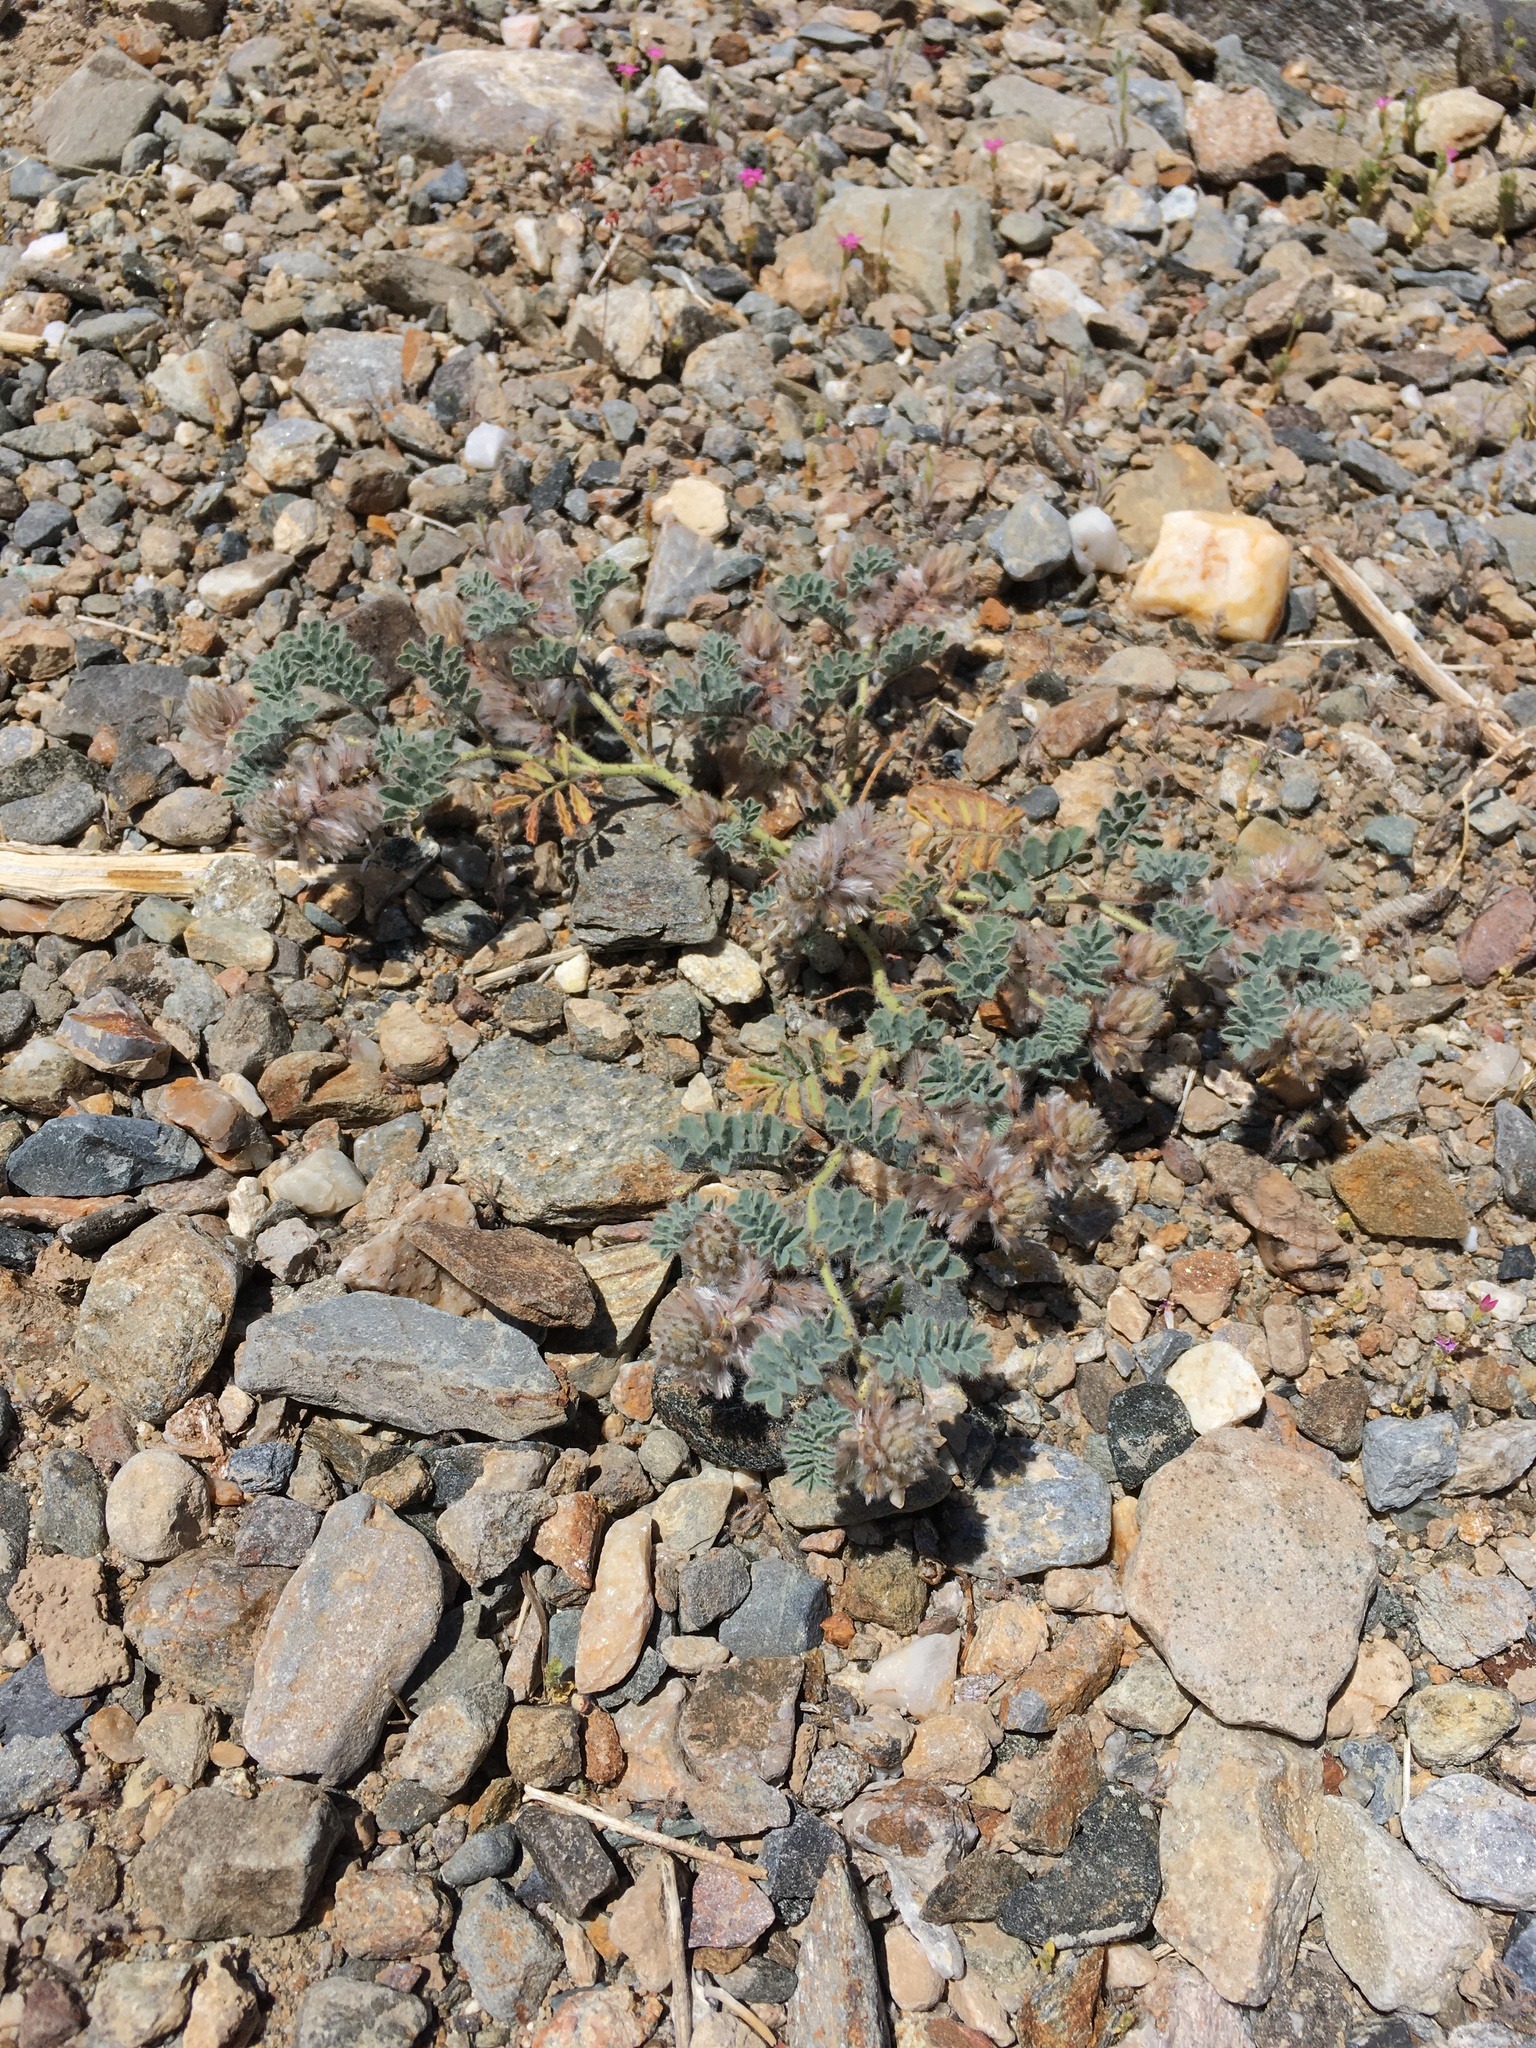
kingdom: Plantae
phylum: Tracheophyta
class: Magnoliopsida
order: Fabales
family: Fabaceae
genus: Dalea
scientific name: Dalea mollissima
